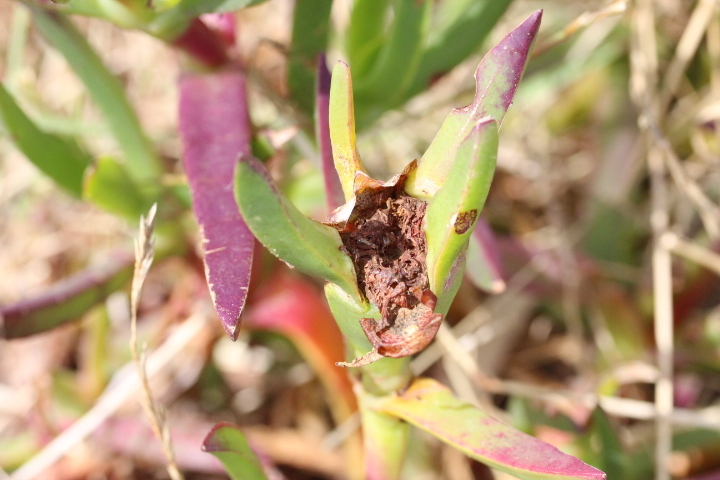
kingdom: Plantae
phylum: Tracheophyta
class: Magnoliopsida
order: Caryophyllales
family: Aizoaceae
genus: Carpobrotus
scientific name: Carpobrotus edulis
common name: Hottentot-fig
